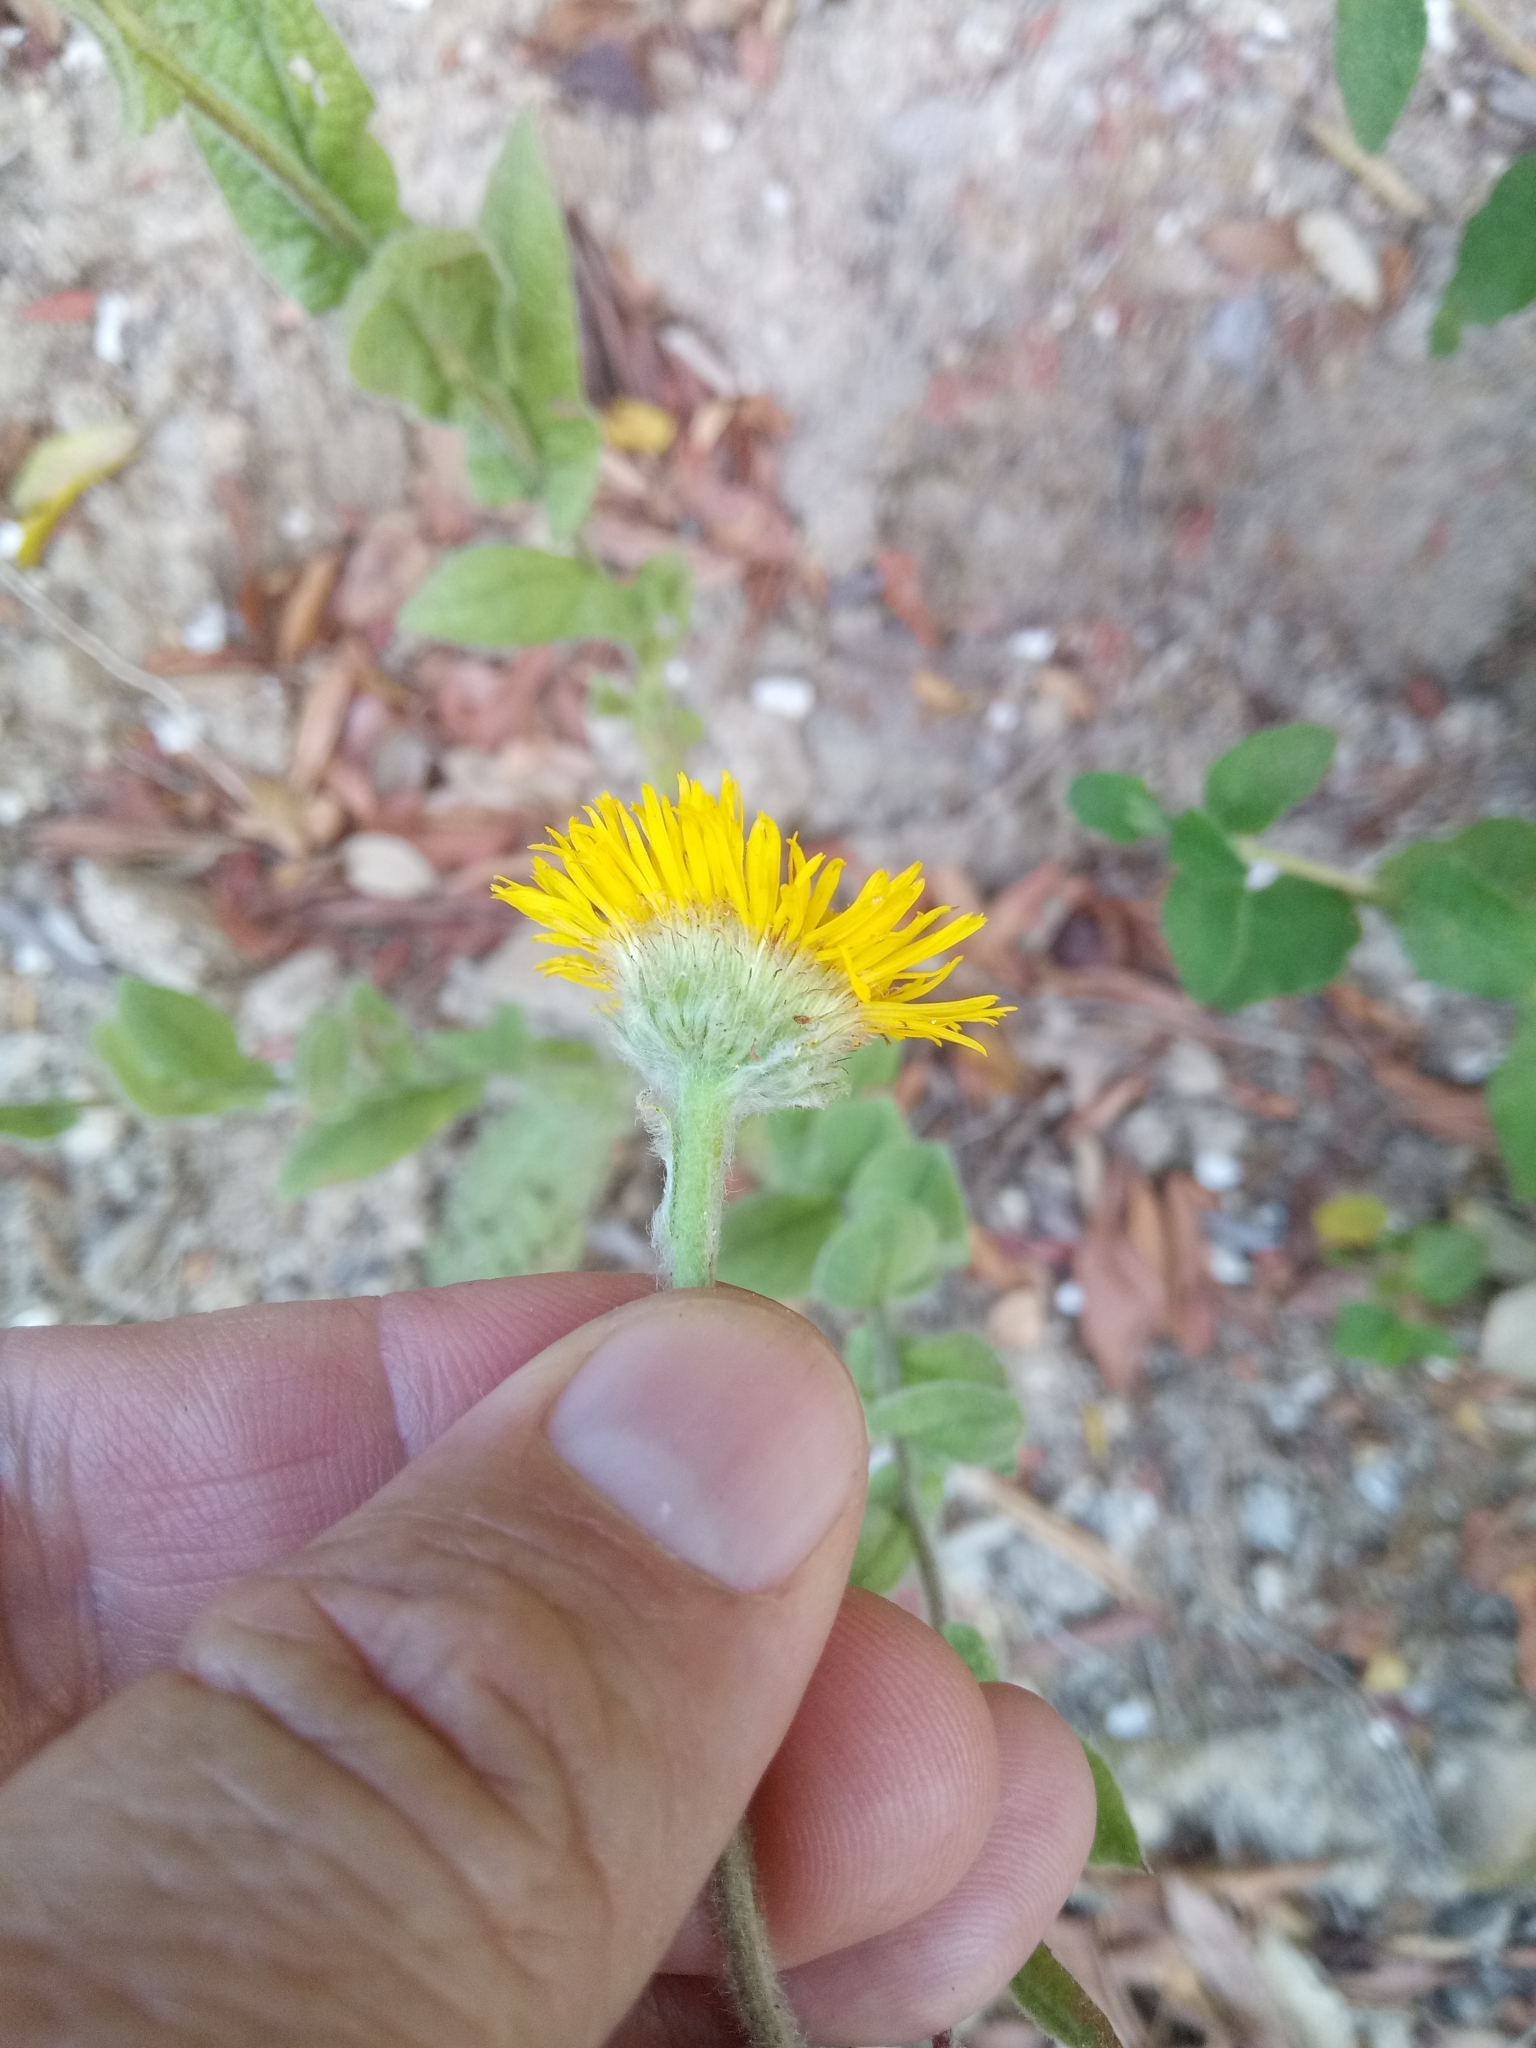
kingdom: Plantae
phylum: Tracheophyta
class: Magnoliopsida
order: Asterales
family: Asteraceae
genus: Pulicaria
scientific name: Pulicaria odora
